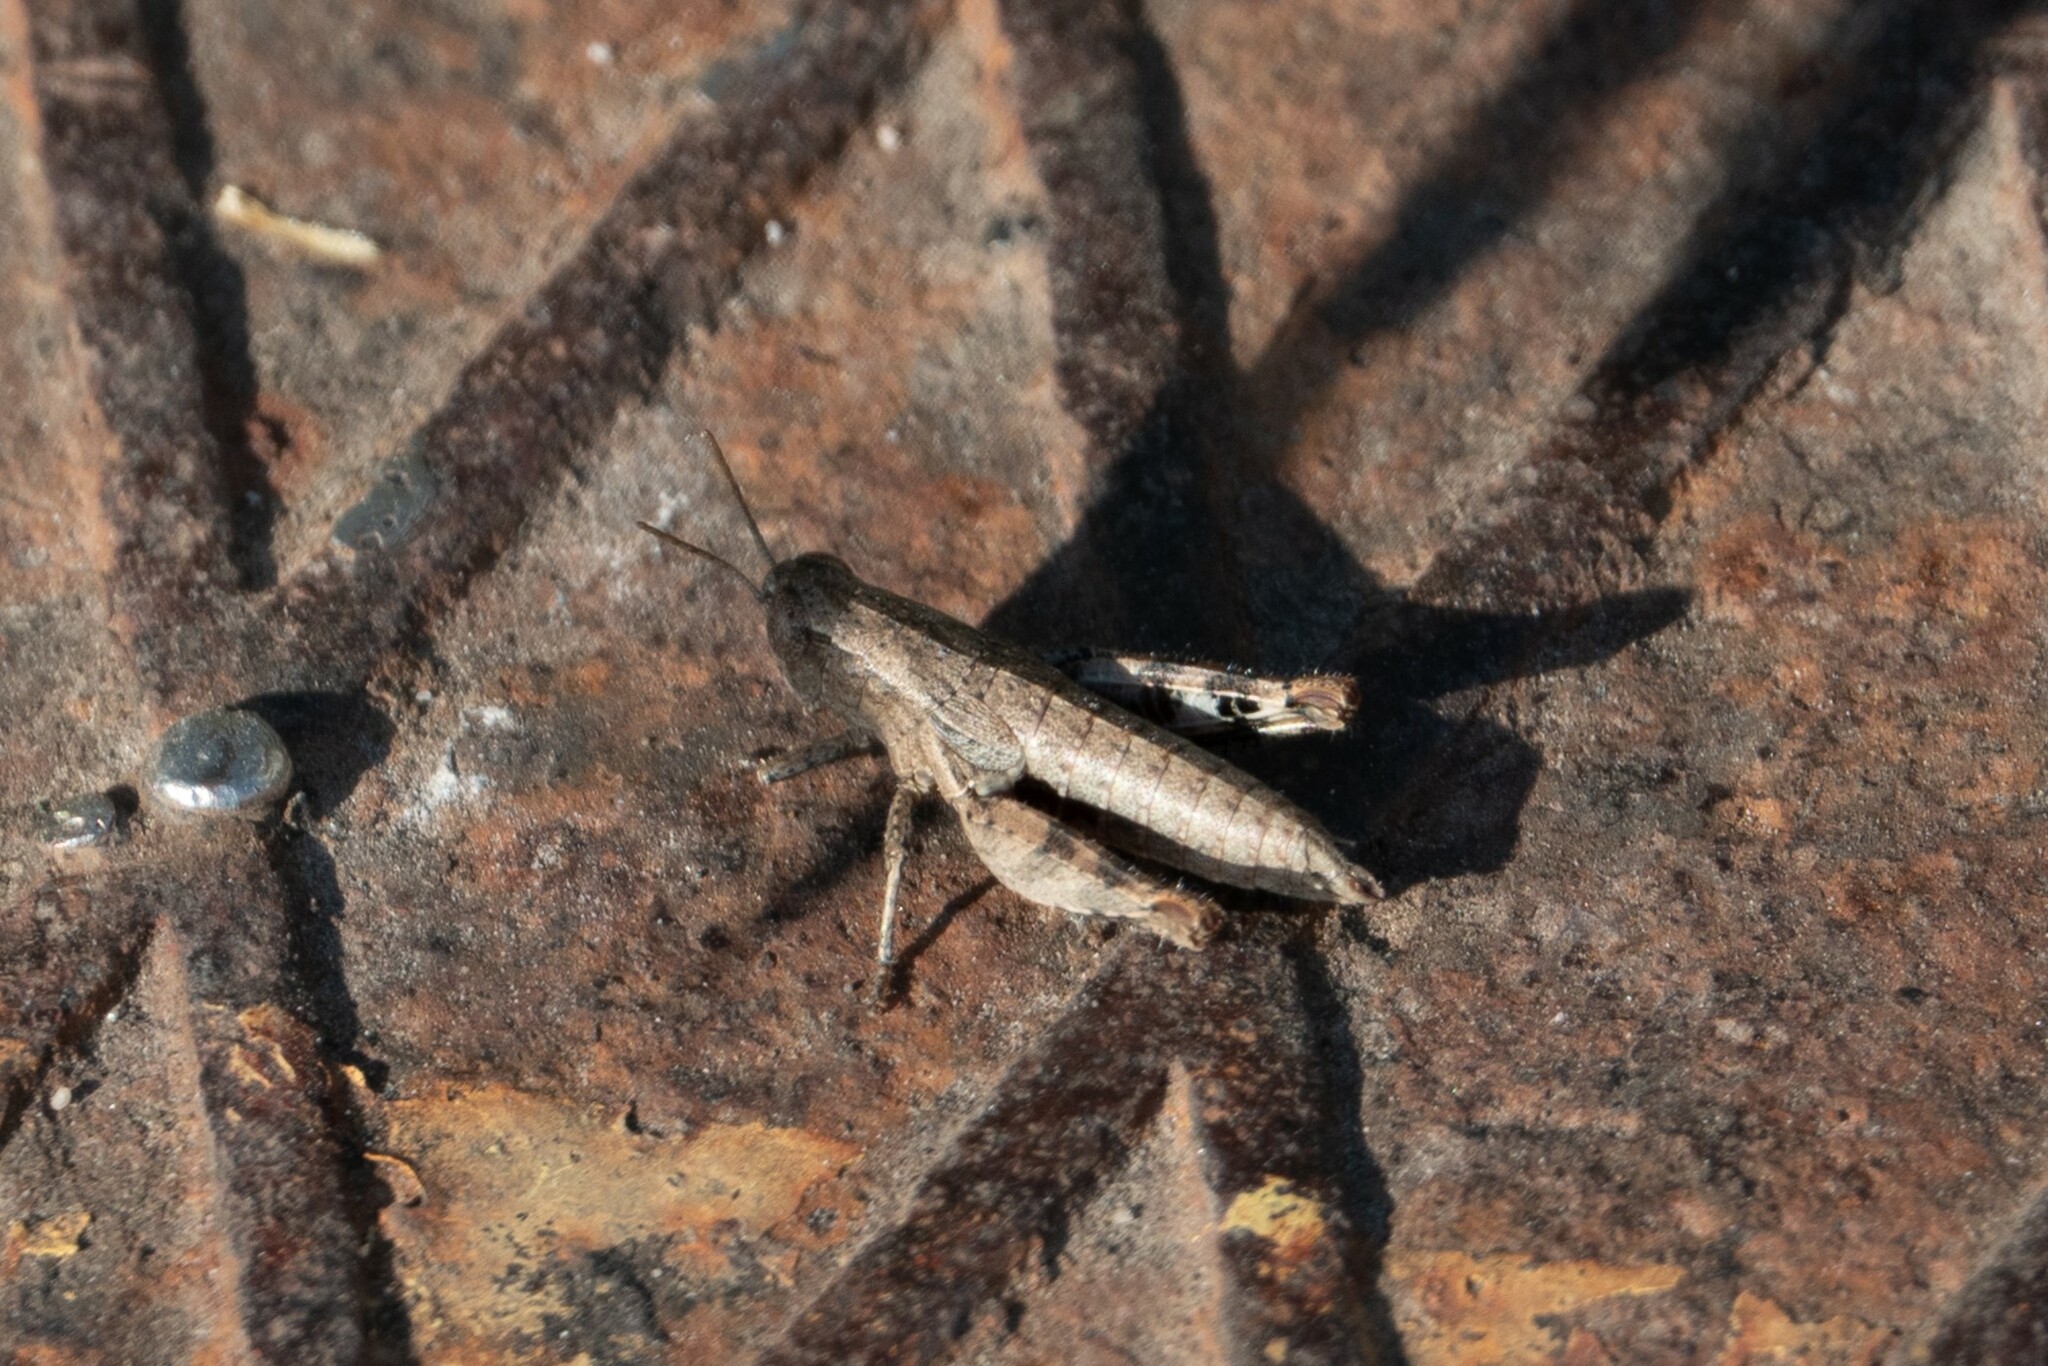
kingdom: Animalia
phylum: Arthropoda
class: Insecta
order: Orthoptera
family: Acrididae
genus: Pezotettix
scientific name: Pezotettix giornae
